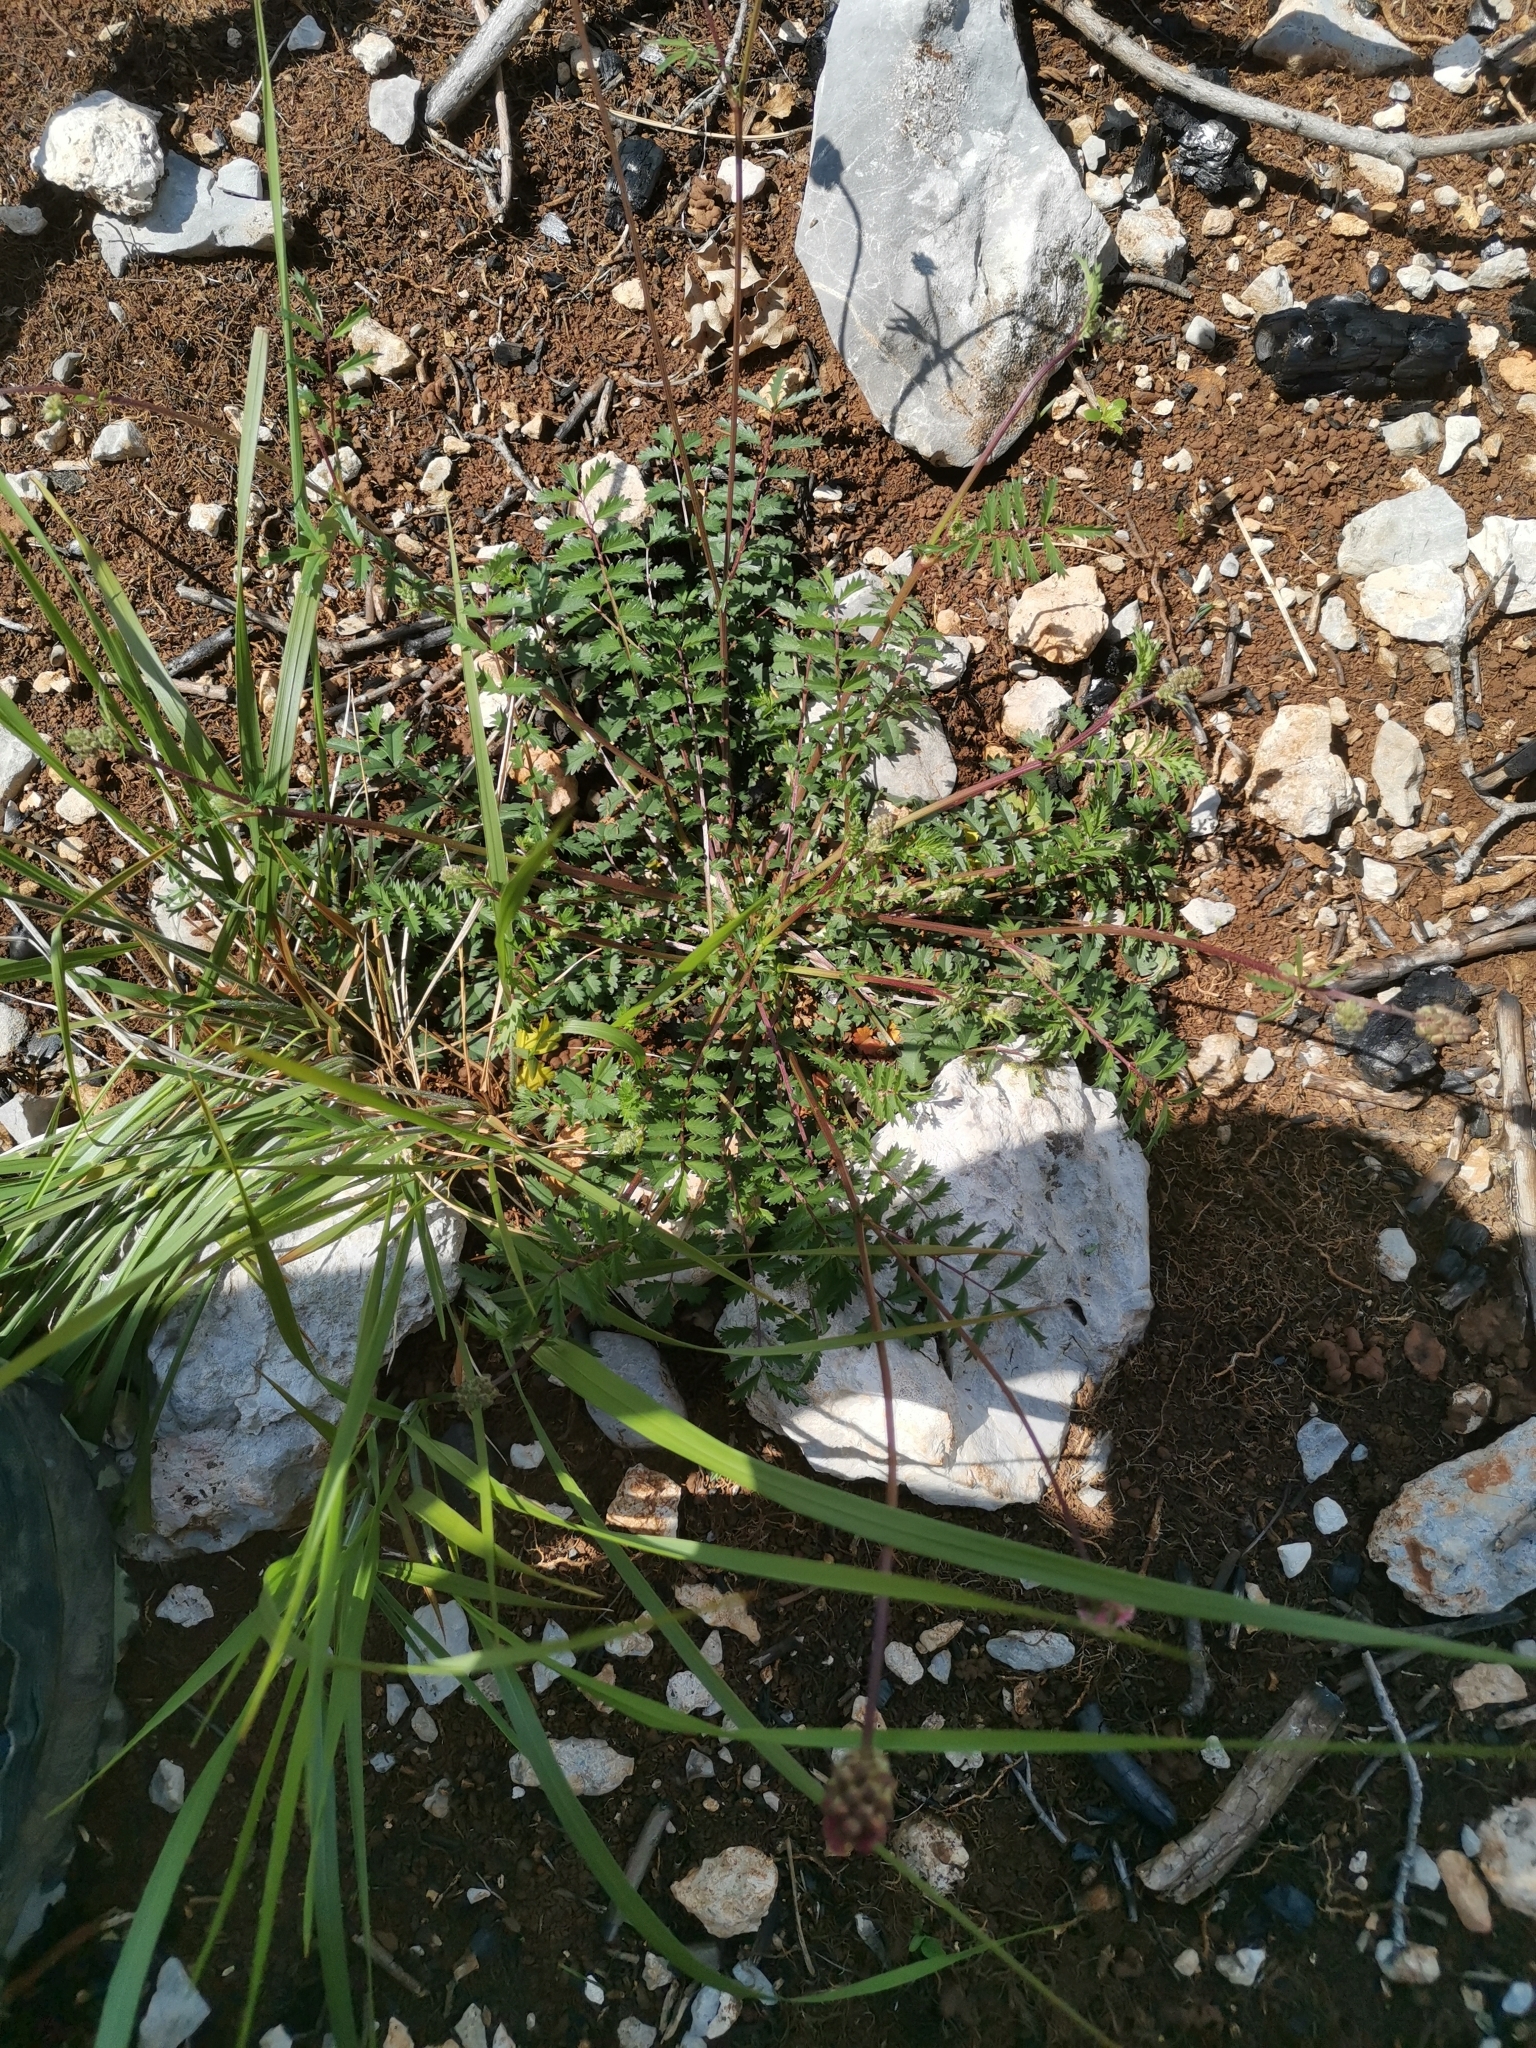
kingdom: Plantae
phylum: Tracheophyta
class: Magnoliopsida
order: Rosales
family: Rosaceae
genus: Poterium
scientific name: Poterium sanguisorba
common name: Salad burnet
